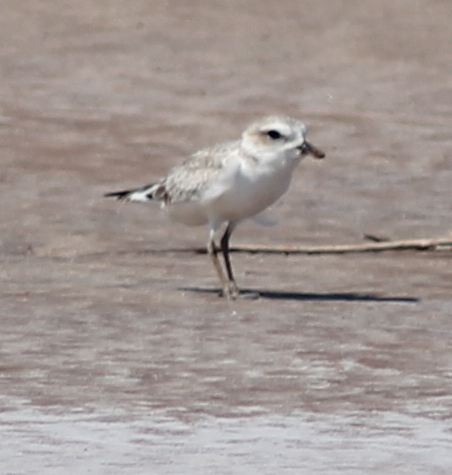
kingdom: Animalia
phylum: Chordata
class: Aves
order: Charadriiformes
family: Charadriidae
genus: Anarhynchus
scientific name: Anarhynchus
